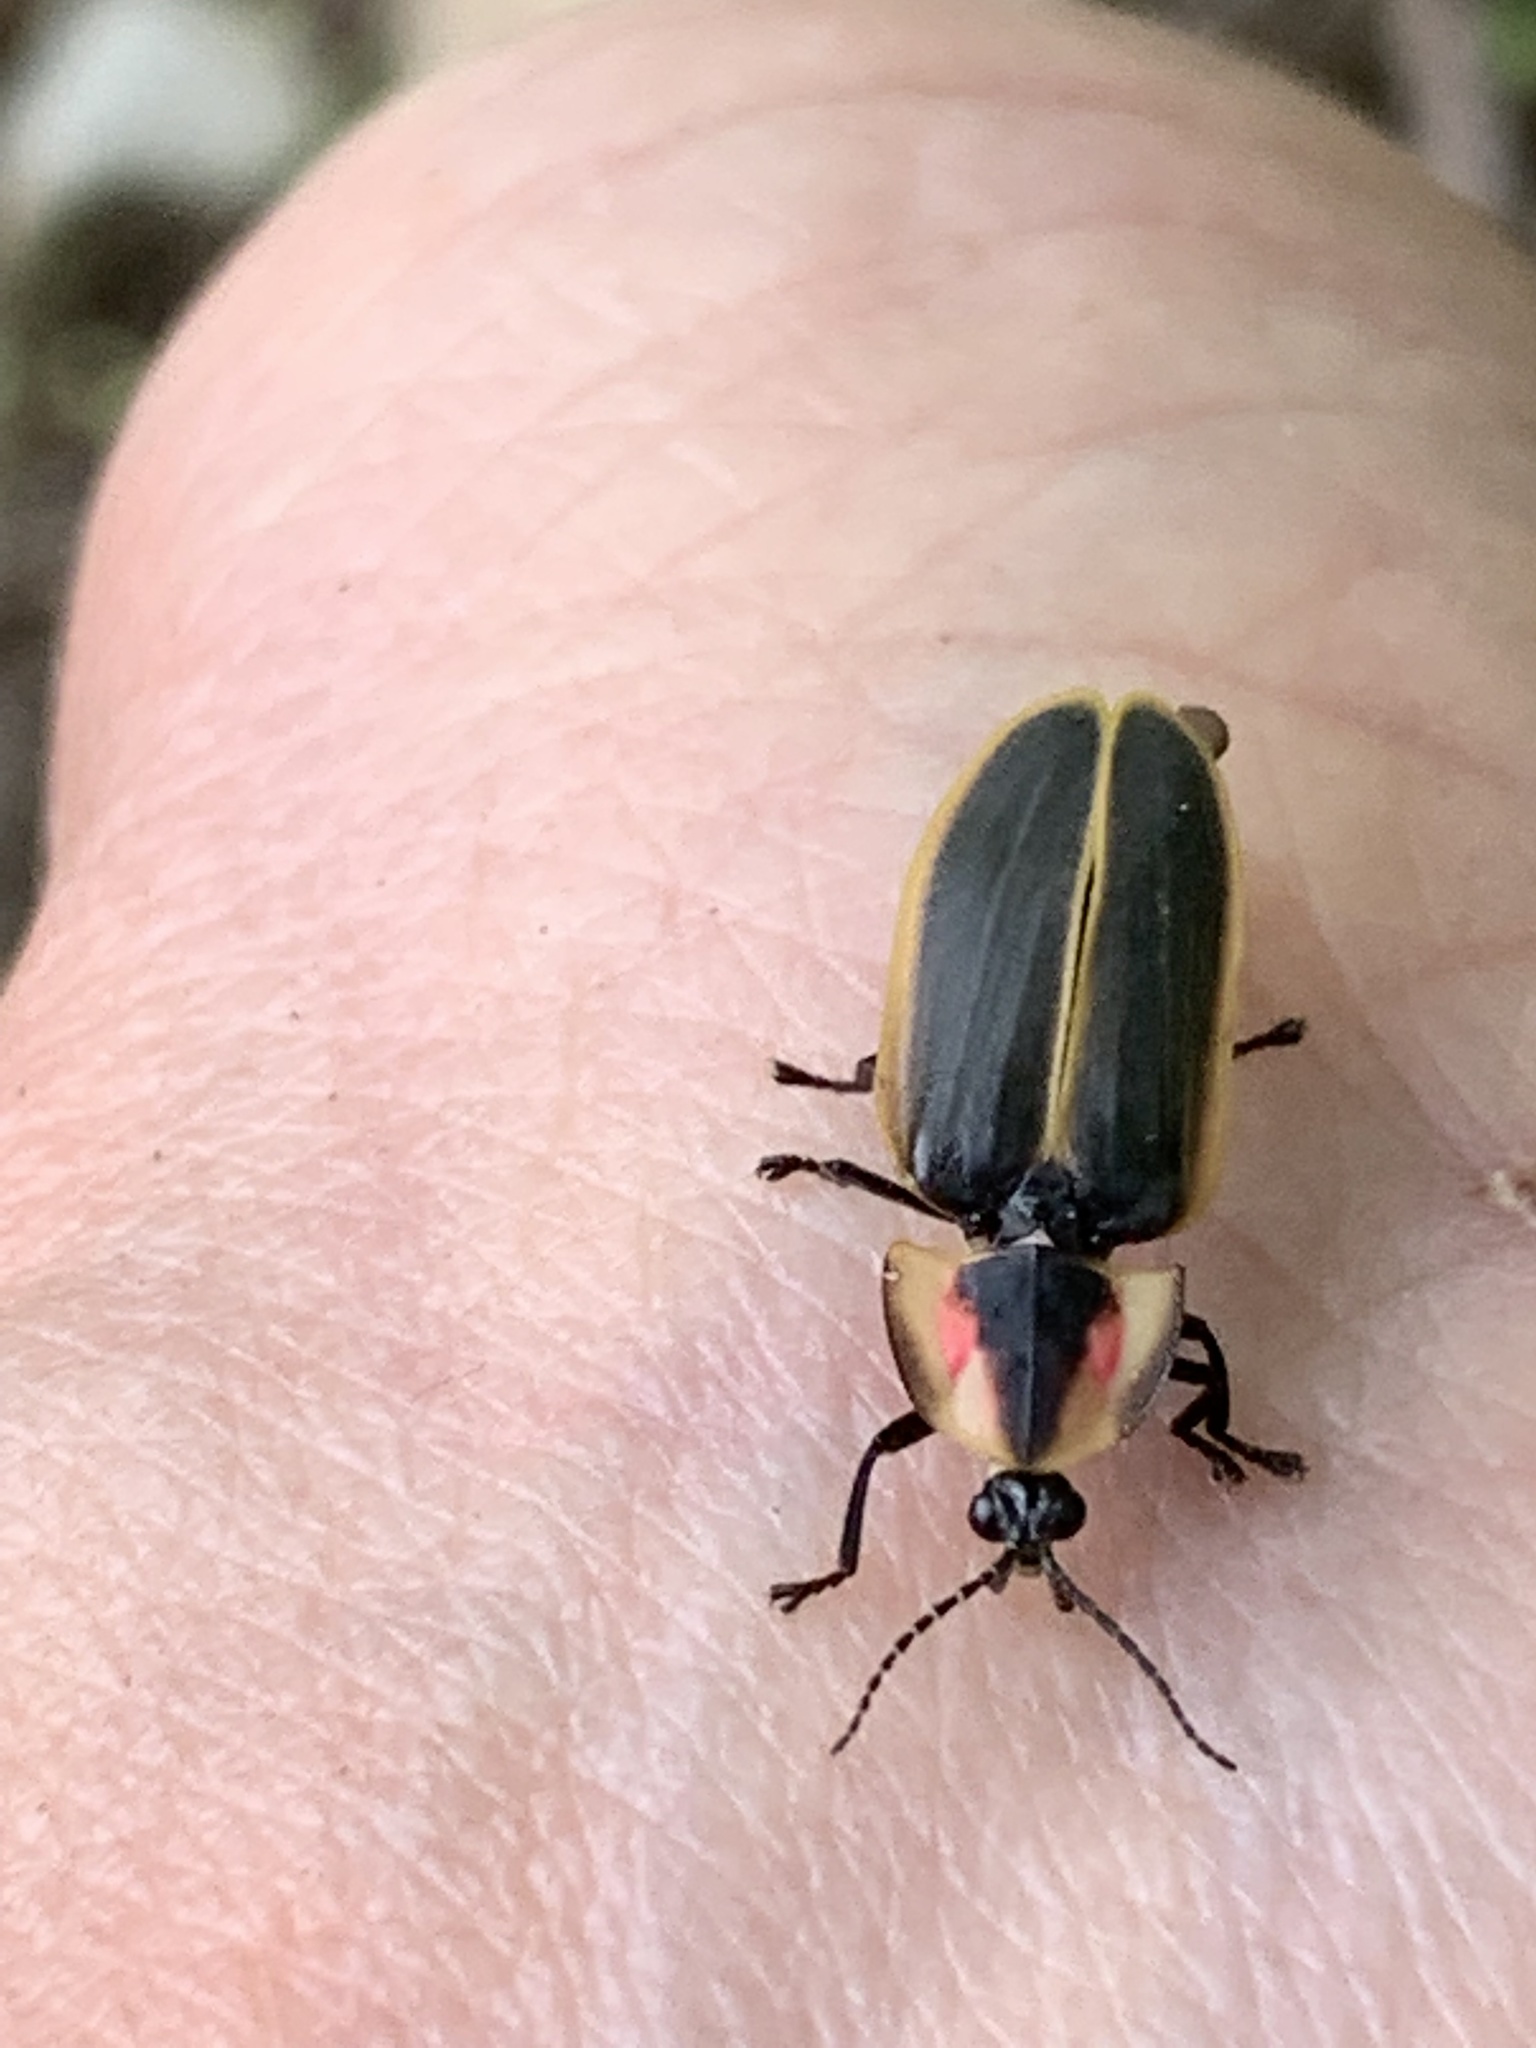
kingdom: Animalia
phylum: Arthropoda
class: Insecta
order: Coleoptera
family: Lampyridae
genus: Pyractomena
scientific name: Pyractomena borealis
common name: Northern firefly
